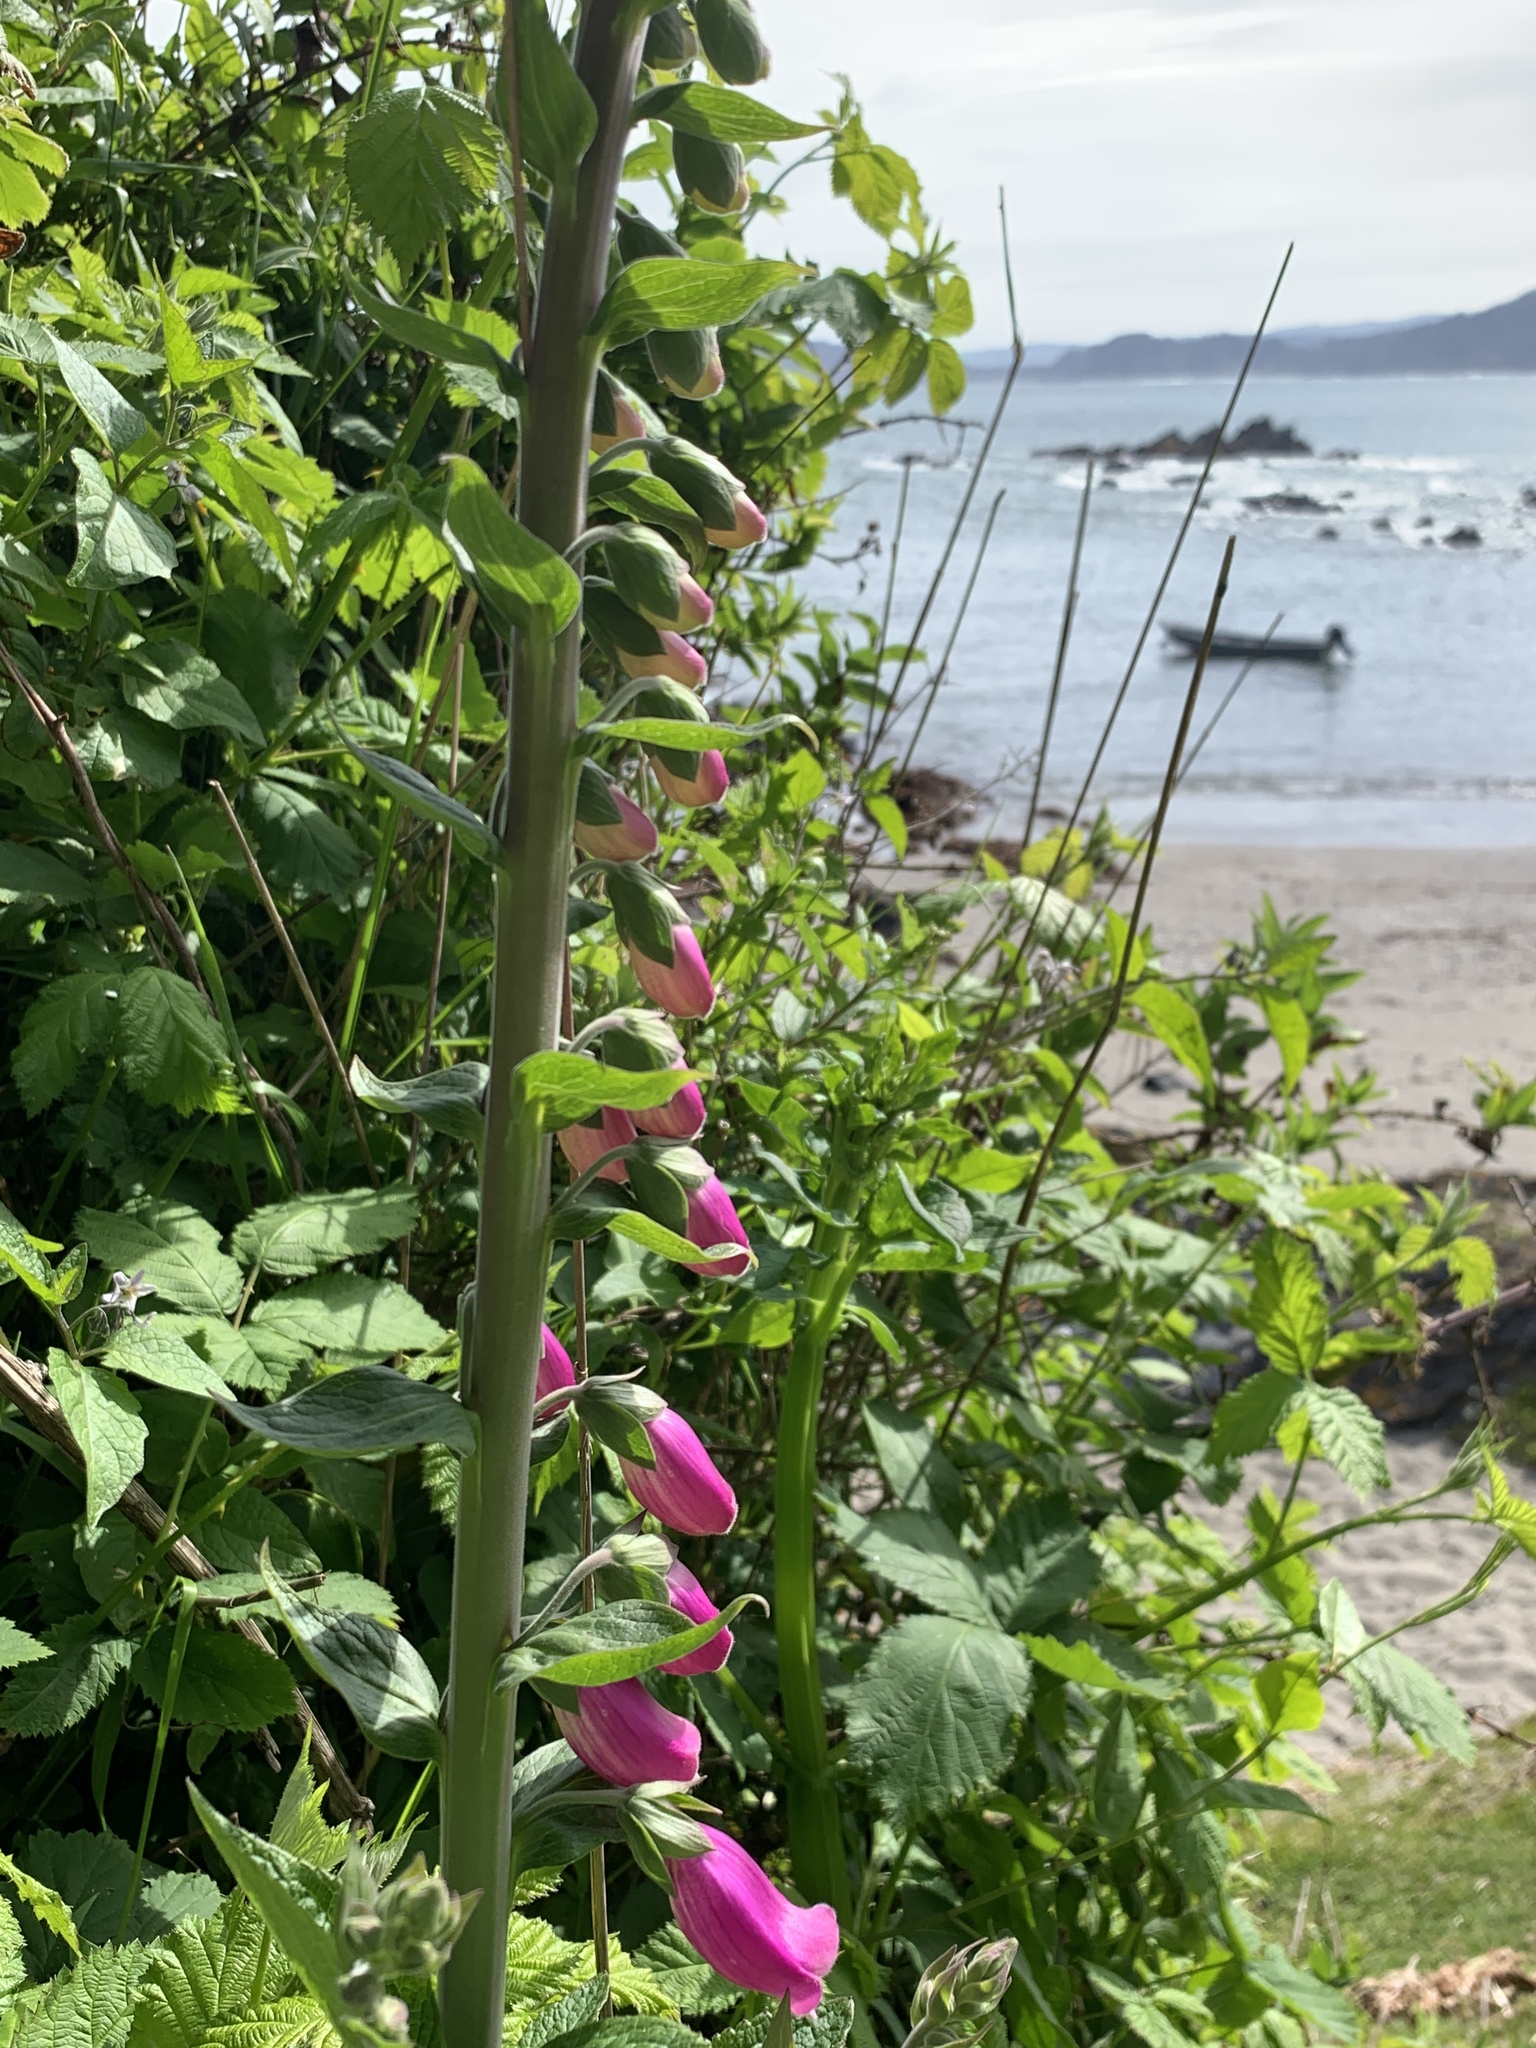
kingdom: Plantae
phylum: Tracheophyta
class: Magnoliopsida
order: Lamiales
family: Plantaginaceae
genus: Digitalis
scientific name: Digitalis purpurea
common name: Foxglove
